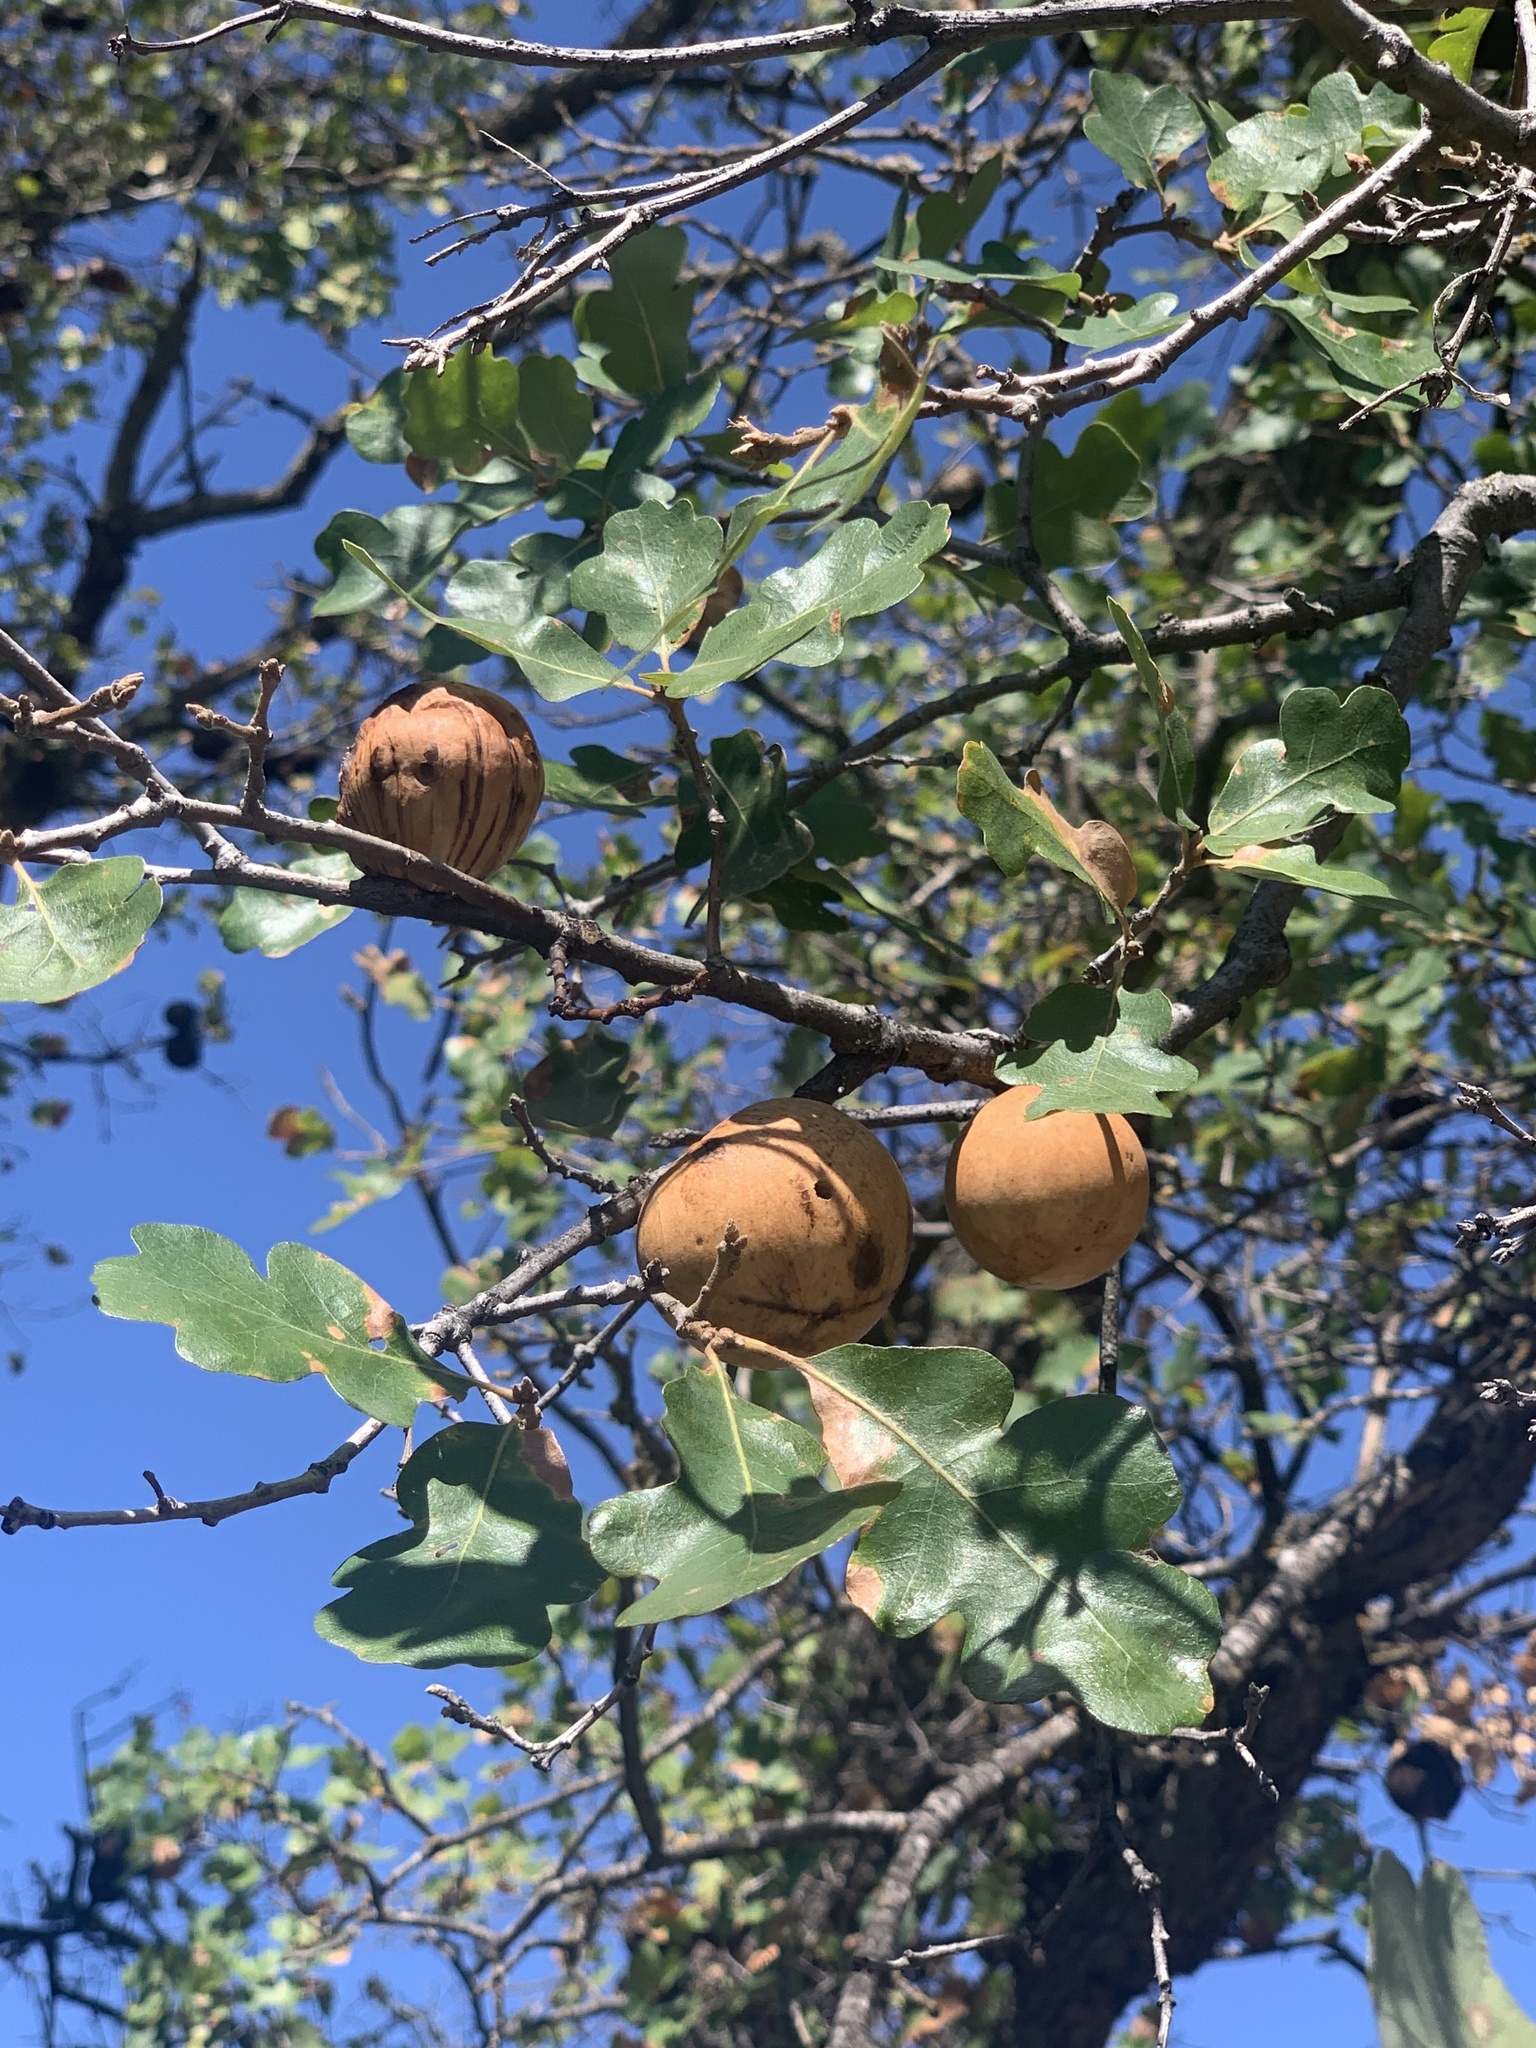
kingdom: Animalia
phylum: Arthropoda
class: Insecta
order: Hymenoptera
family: Cynipidae
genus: Andricus
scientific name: Andricus quercuscalifornicus
